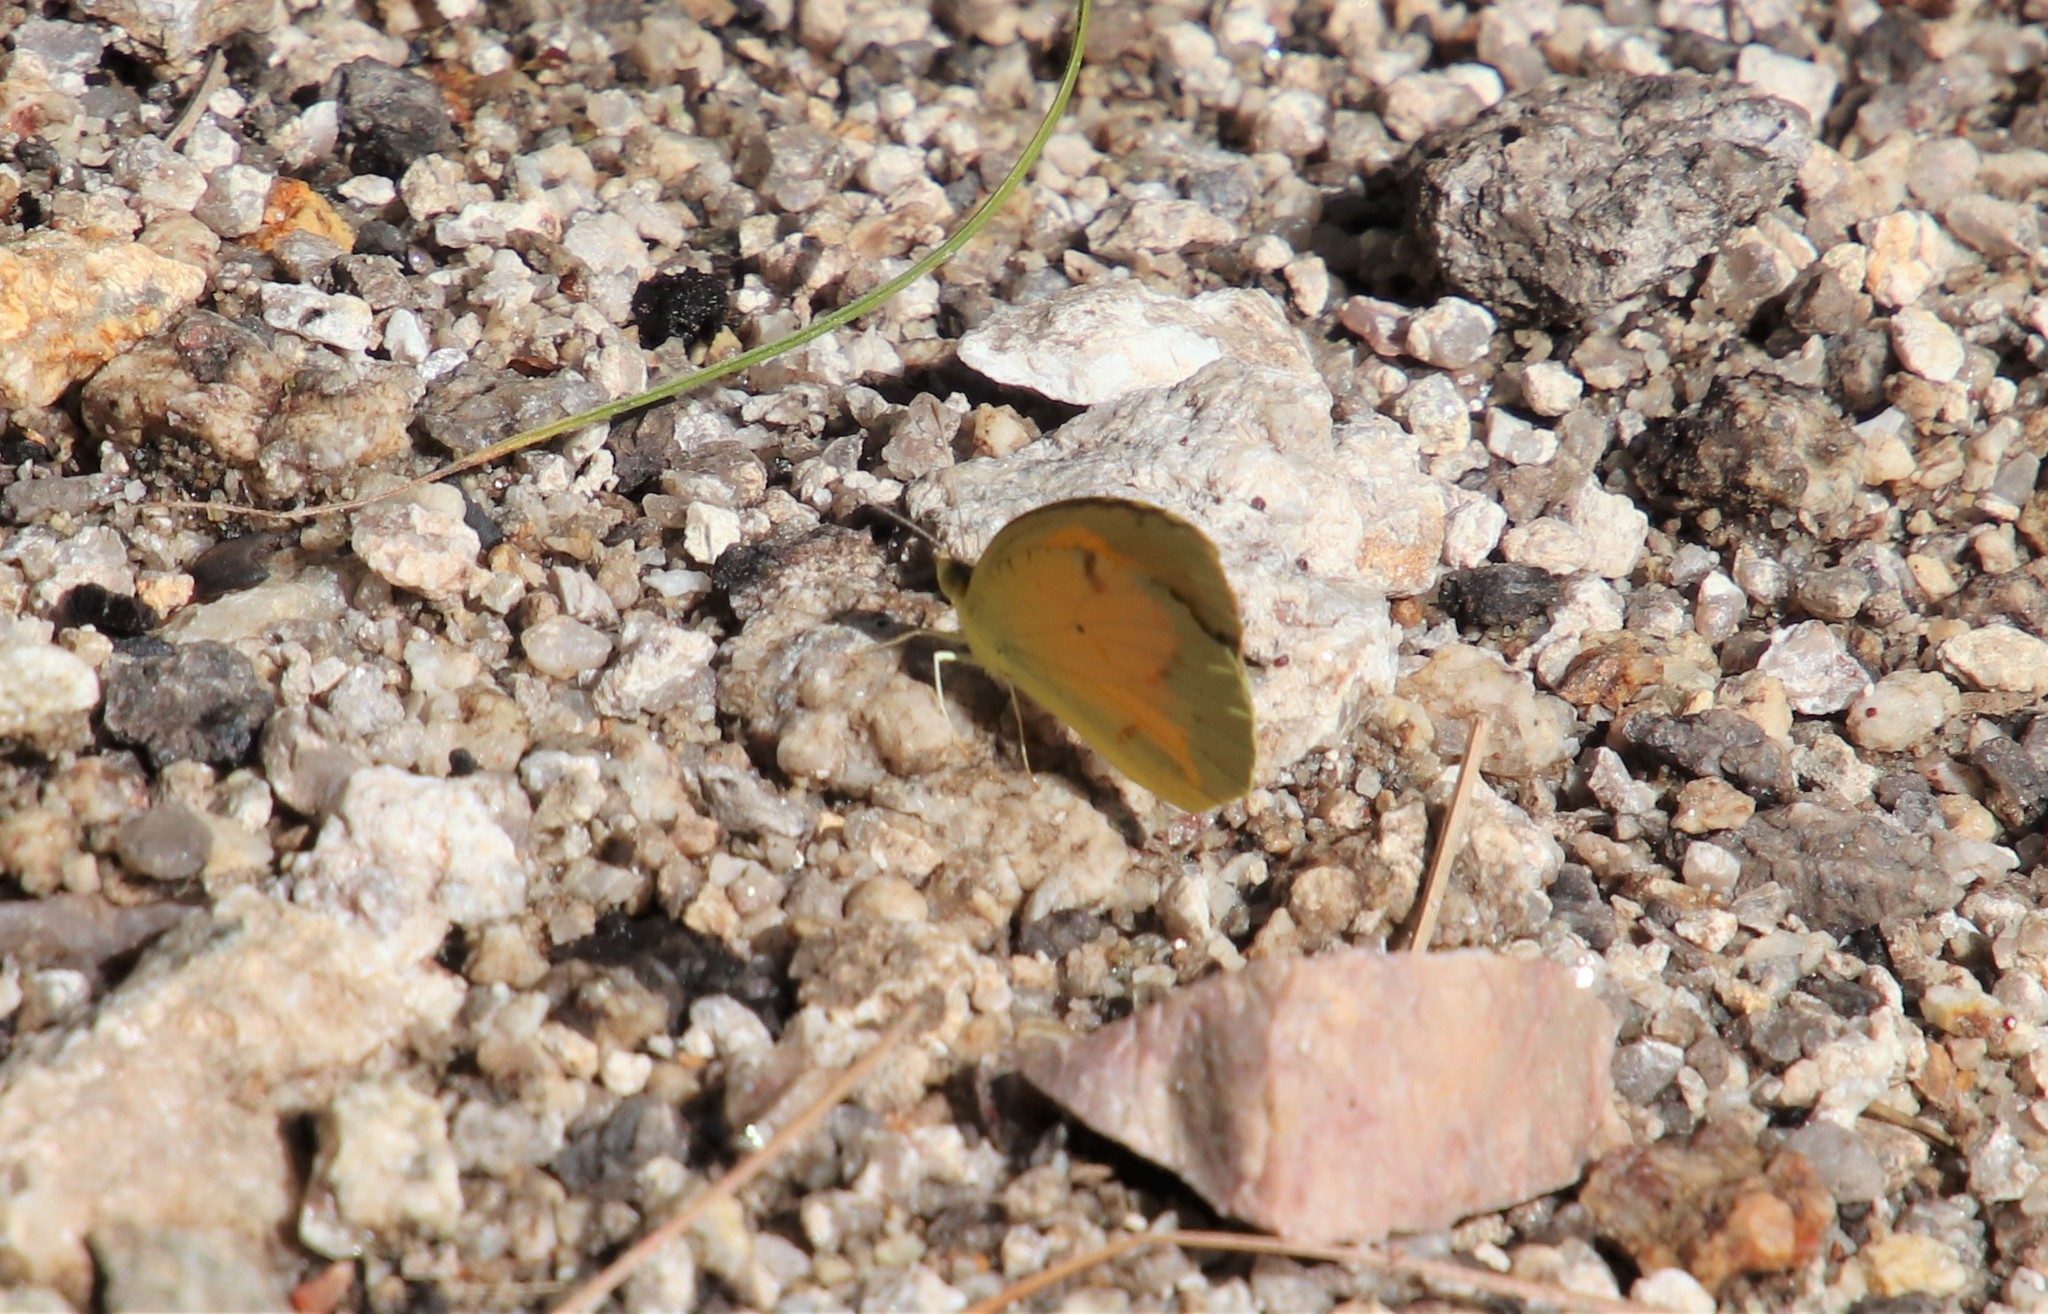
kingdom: Animalia
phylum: Arthropoda
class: Insecta
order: Lepidoptera
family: Pieridae
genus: Abaeis
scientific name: Abaeis nicippe
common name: Sleepy orange
